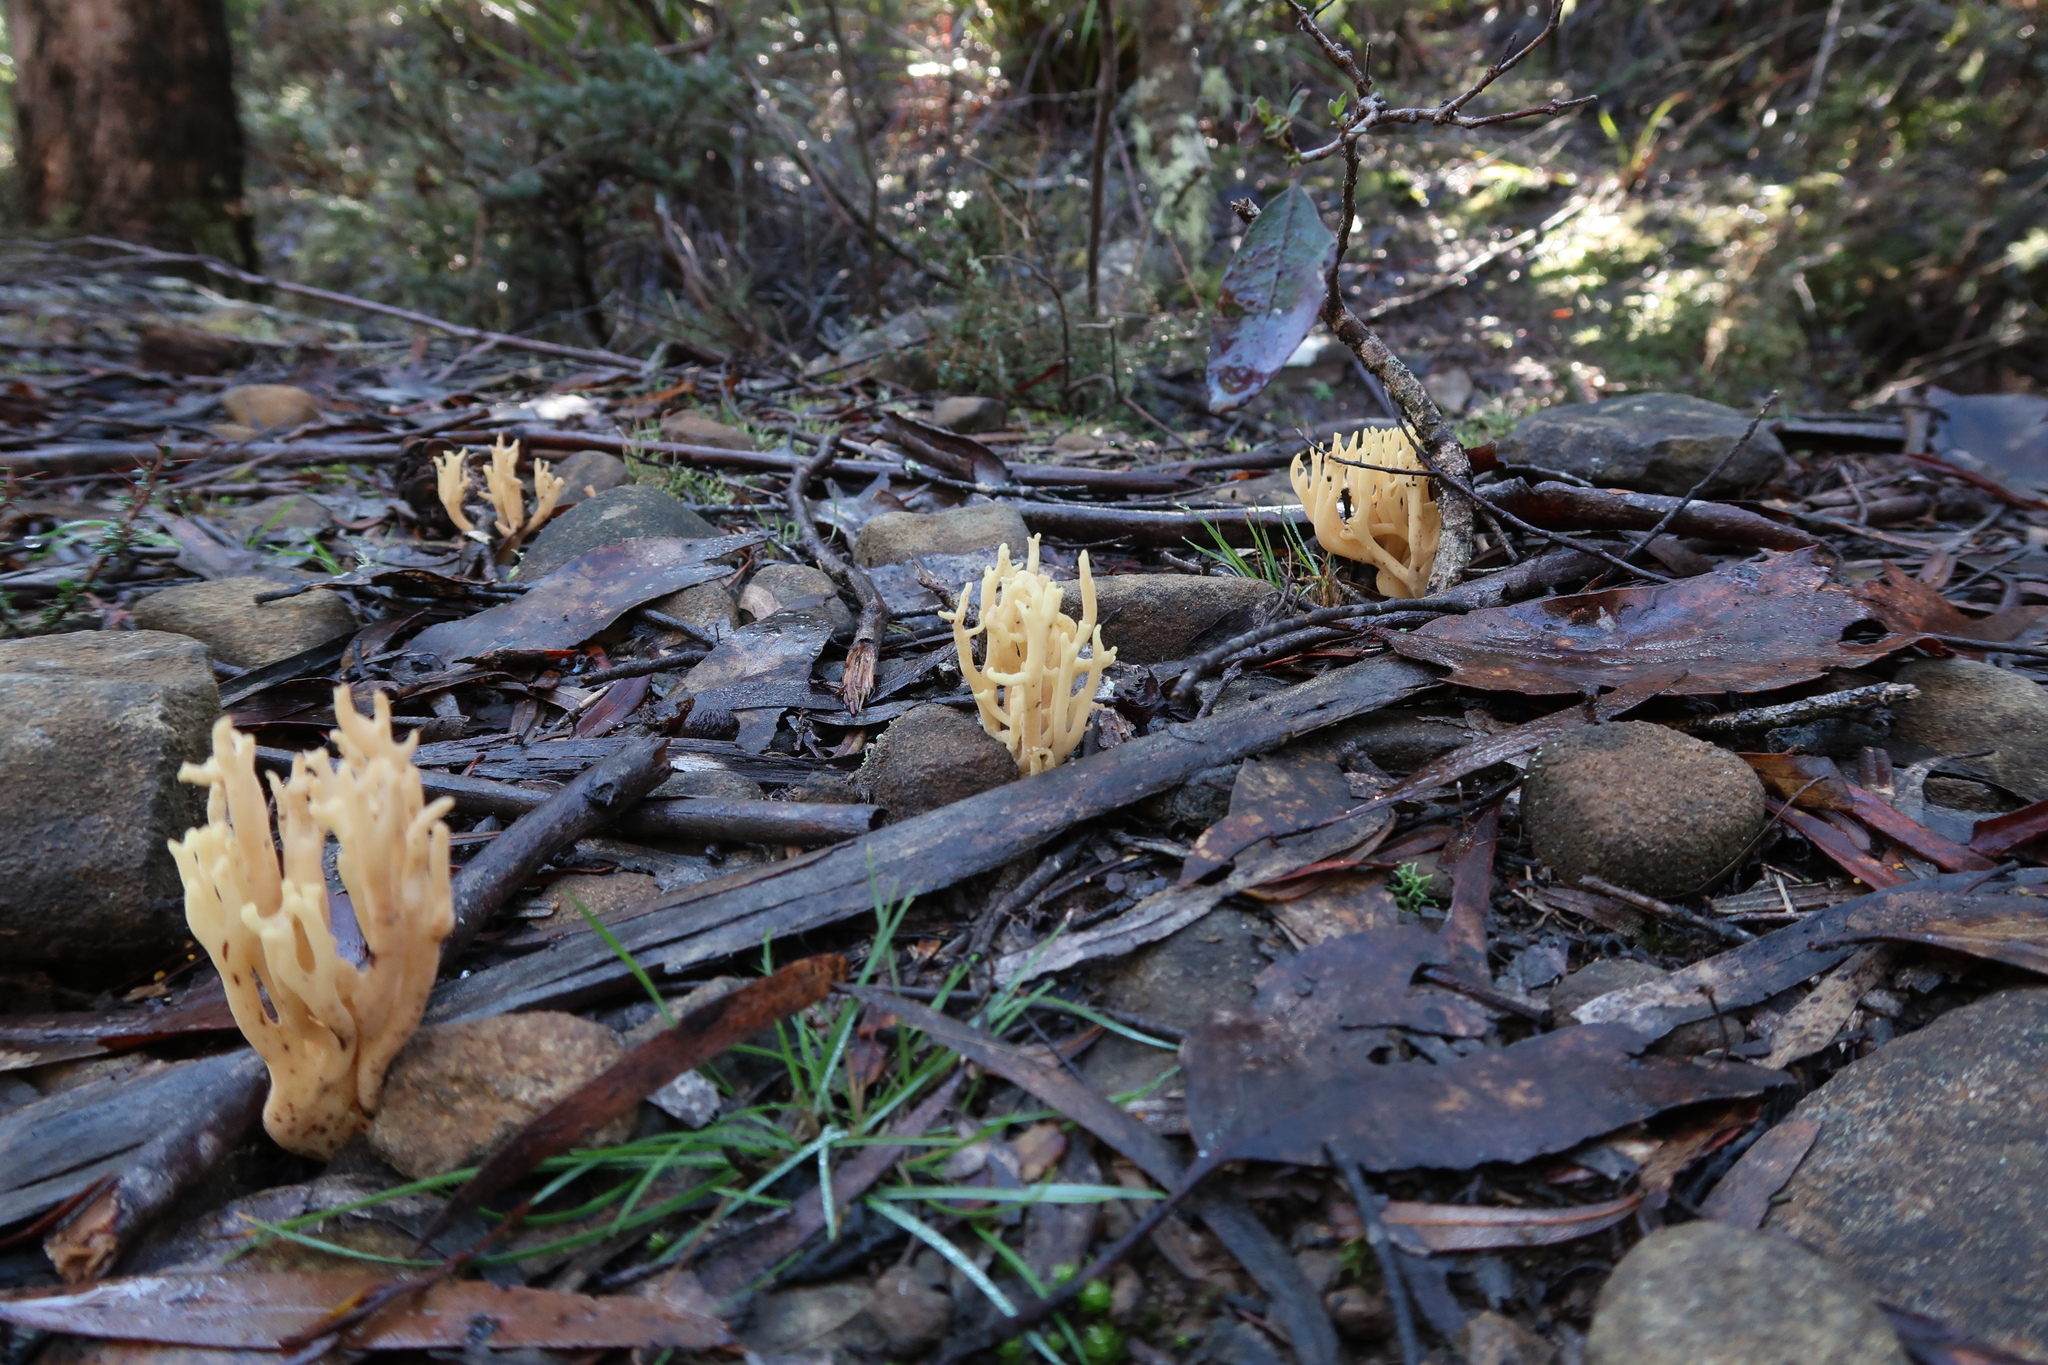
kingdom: Fungi
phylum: Basidiomycota
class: Agaricomycetes
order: Gomphales
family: Gomphaceae
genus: Ramaria
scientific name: Ramaria lorithamnus
